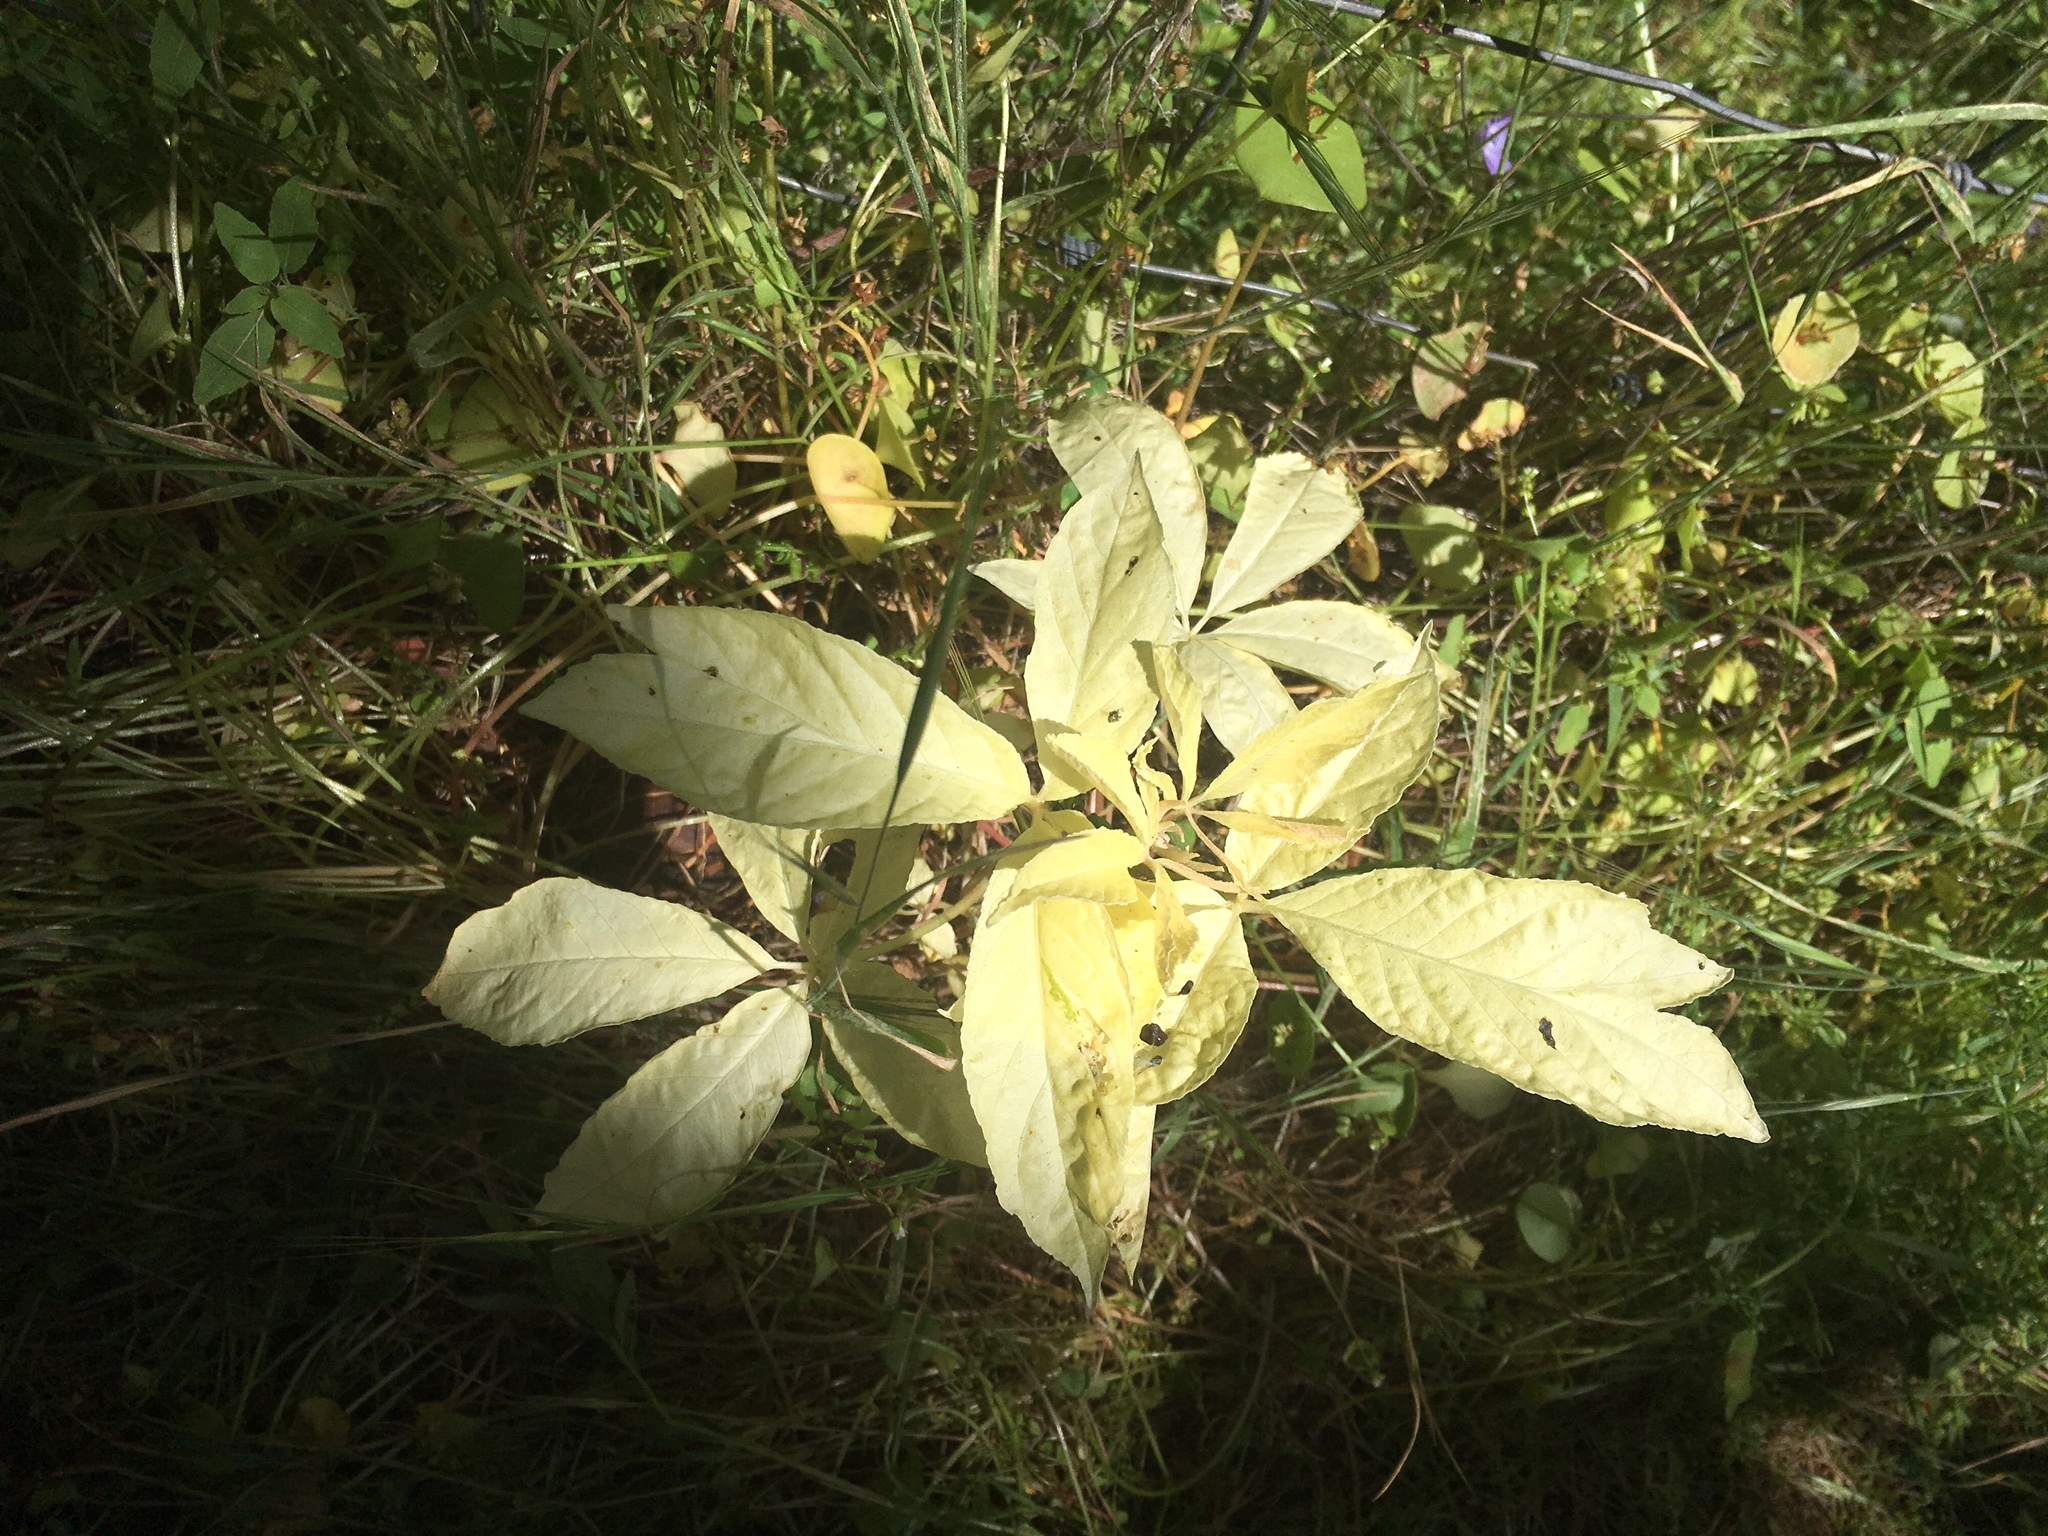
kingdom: Plantae
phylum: Tracheophyta
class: Magnoliopsida
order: Sapindales
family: Sapindaceae
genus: Aesculus
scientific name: Aesculus californica
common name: California buckeye
